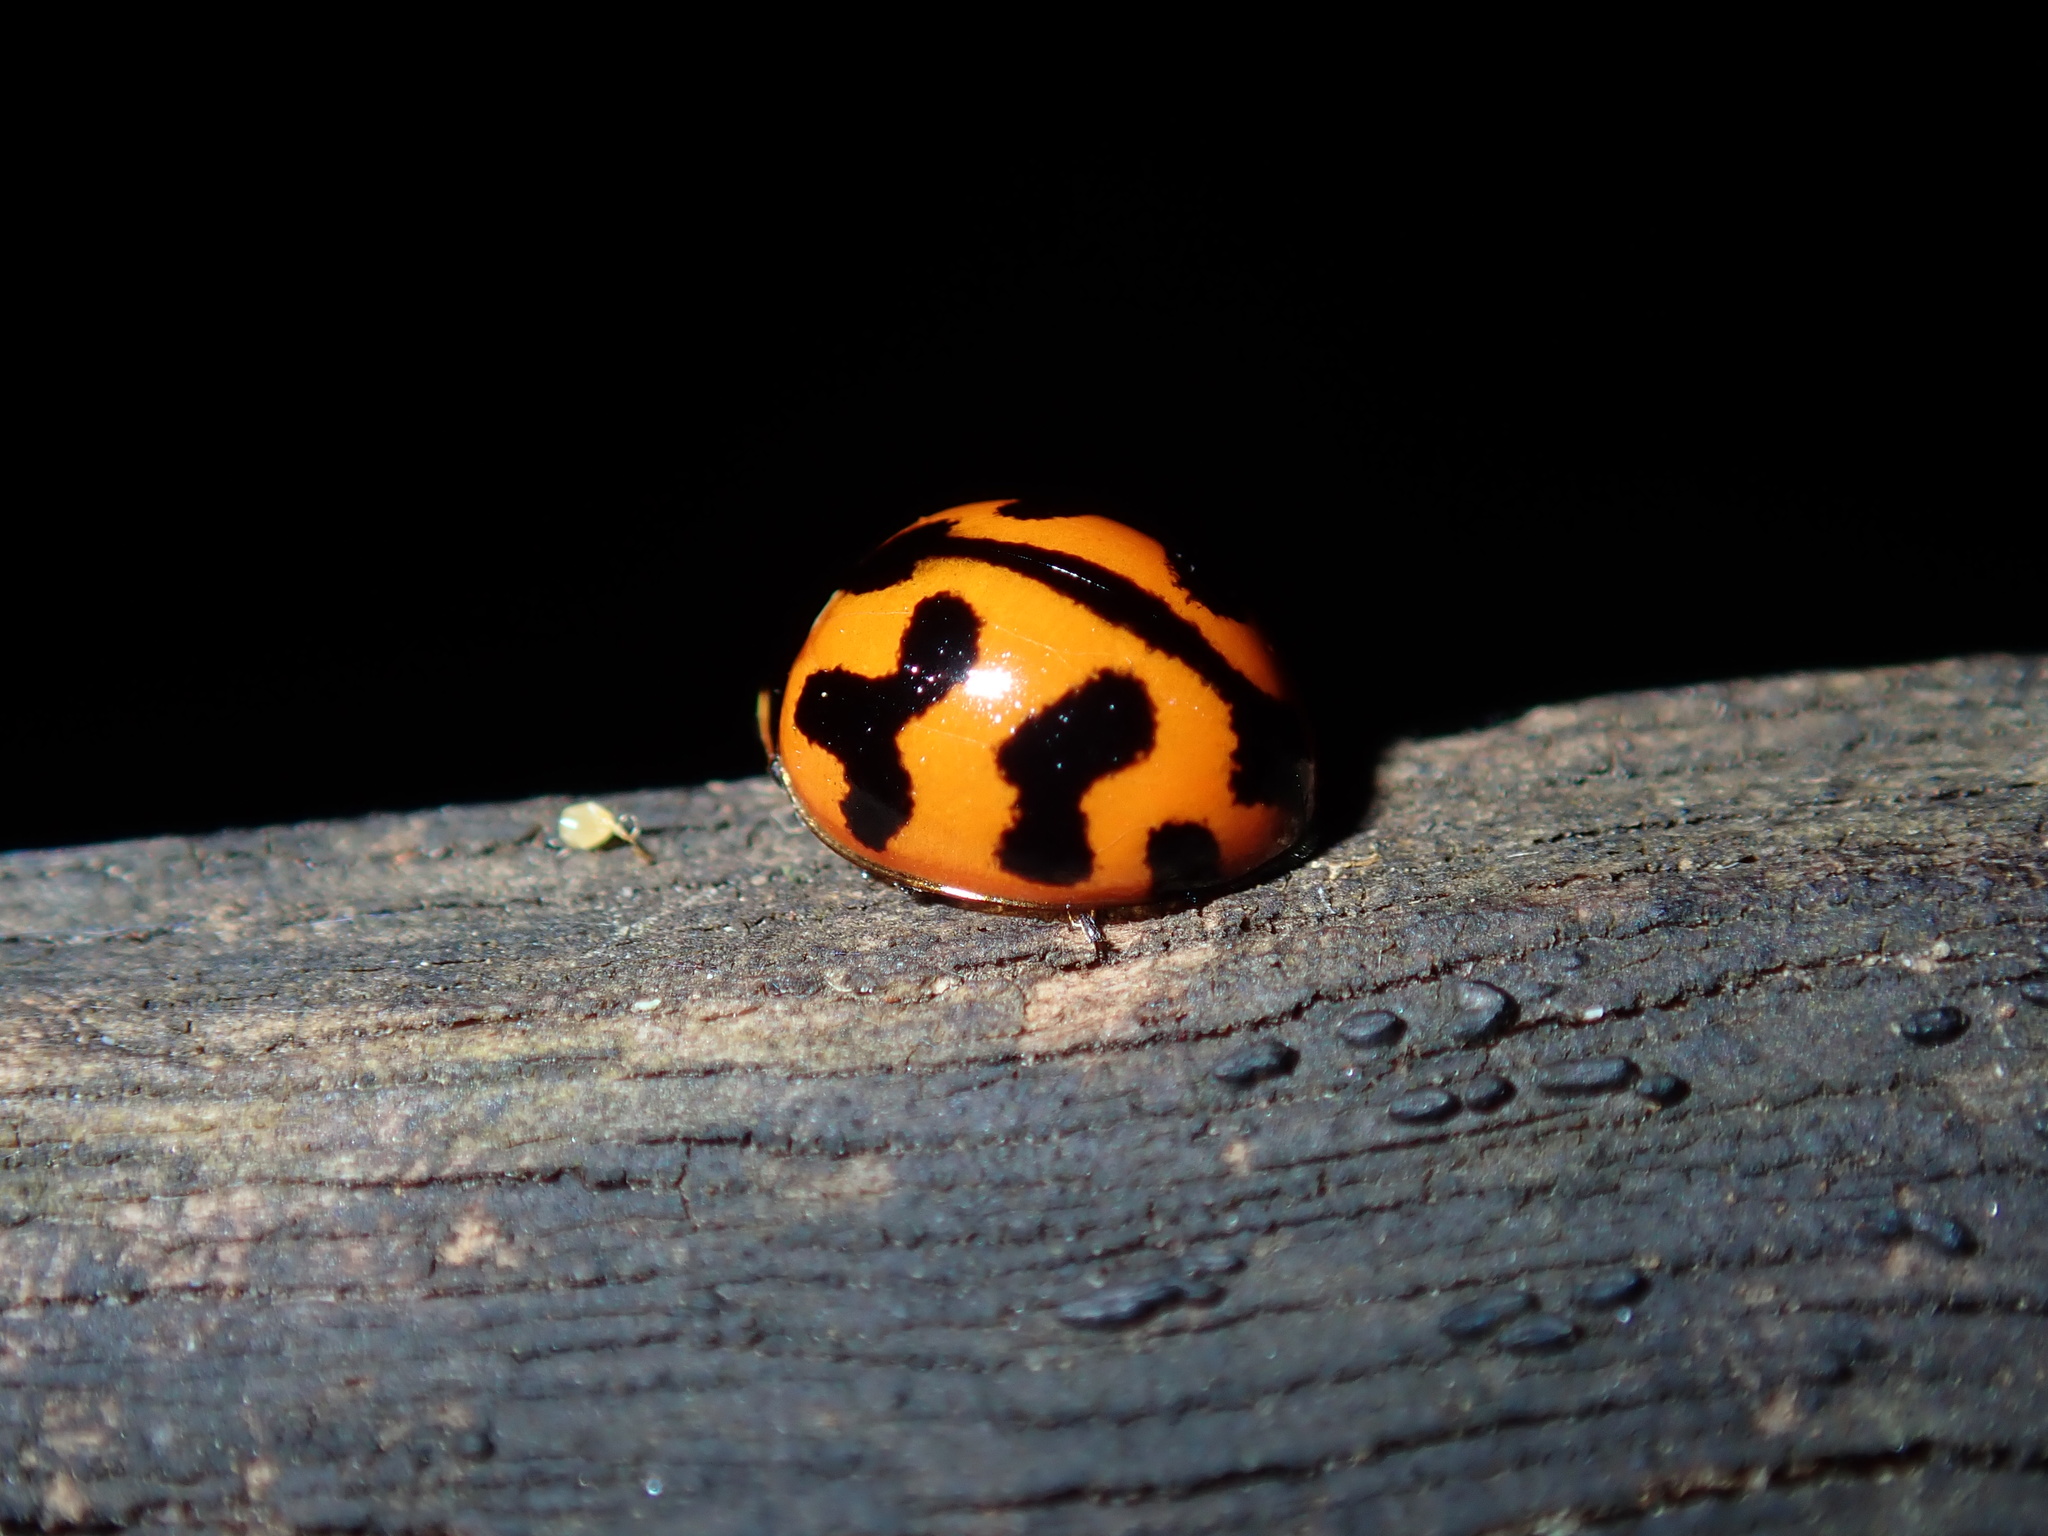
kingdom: Animalia
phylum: Arthropoda
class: Insecta
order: Coleoptera
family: Coccinellidae
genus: Coccinella
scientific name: Coccinella transversalis
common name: Transverse lady beetle
